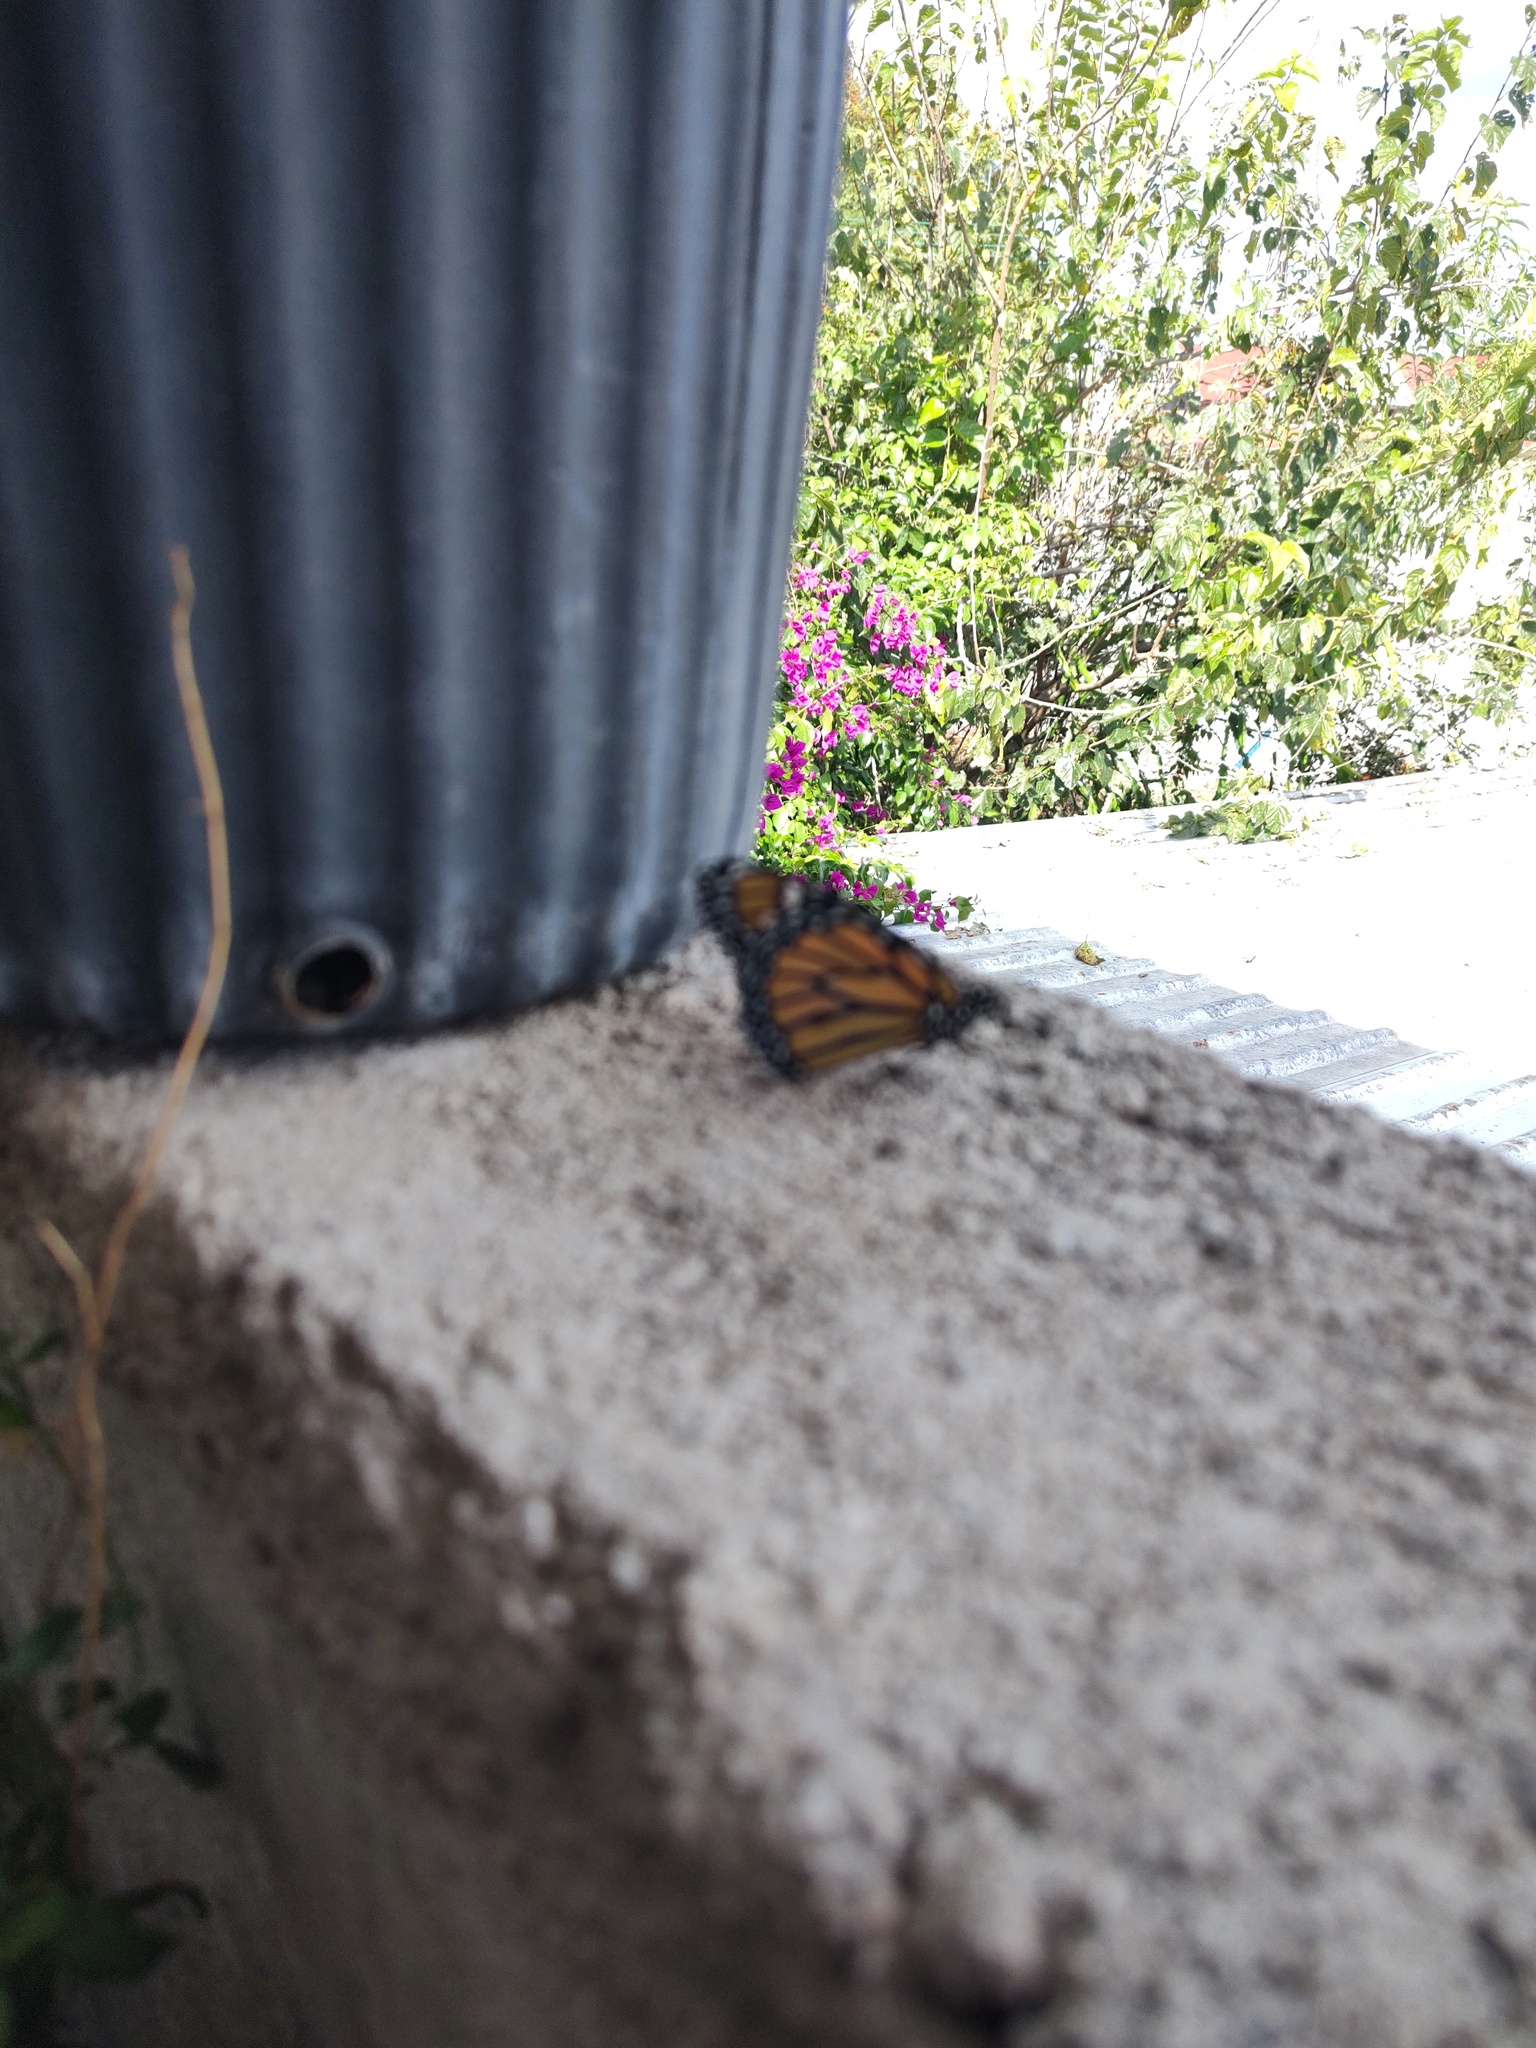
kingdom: Animalia
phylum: Arthropoda
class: Insecta
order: Lepidoptera
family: Nymphalidae
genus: Danaus
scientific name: Danaus plexippus
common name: Monarch
